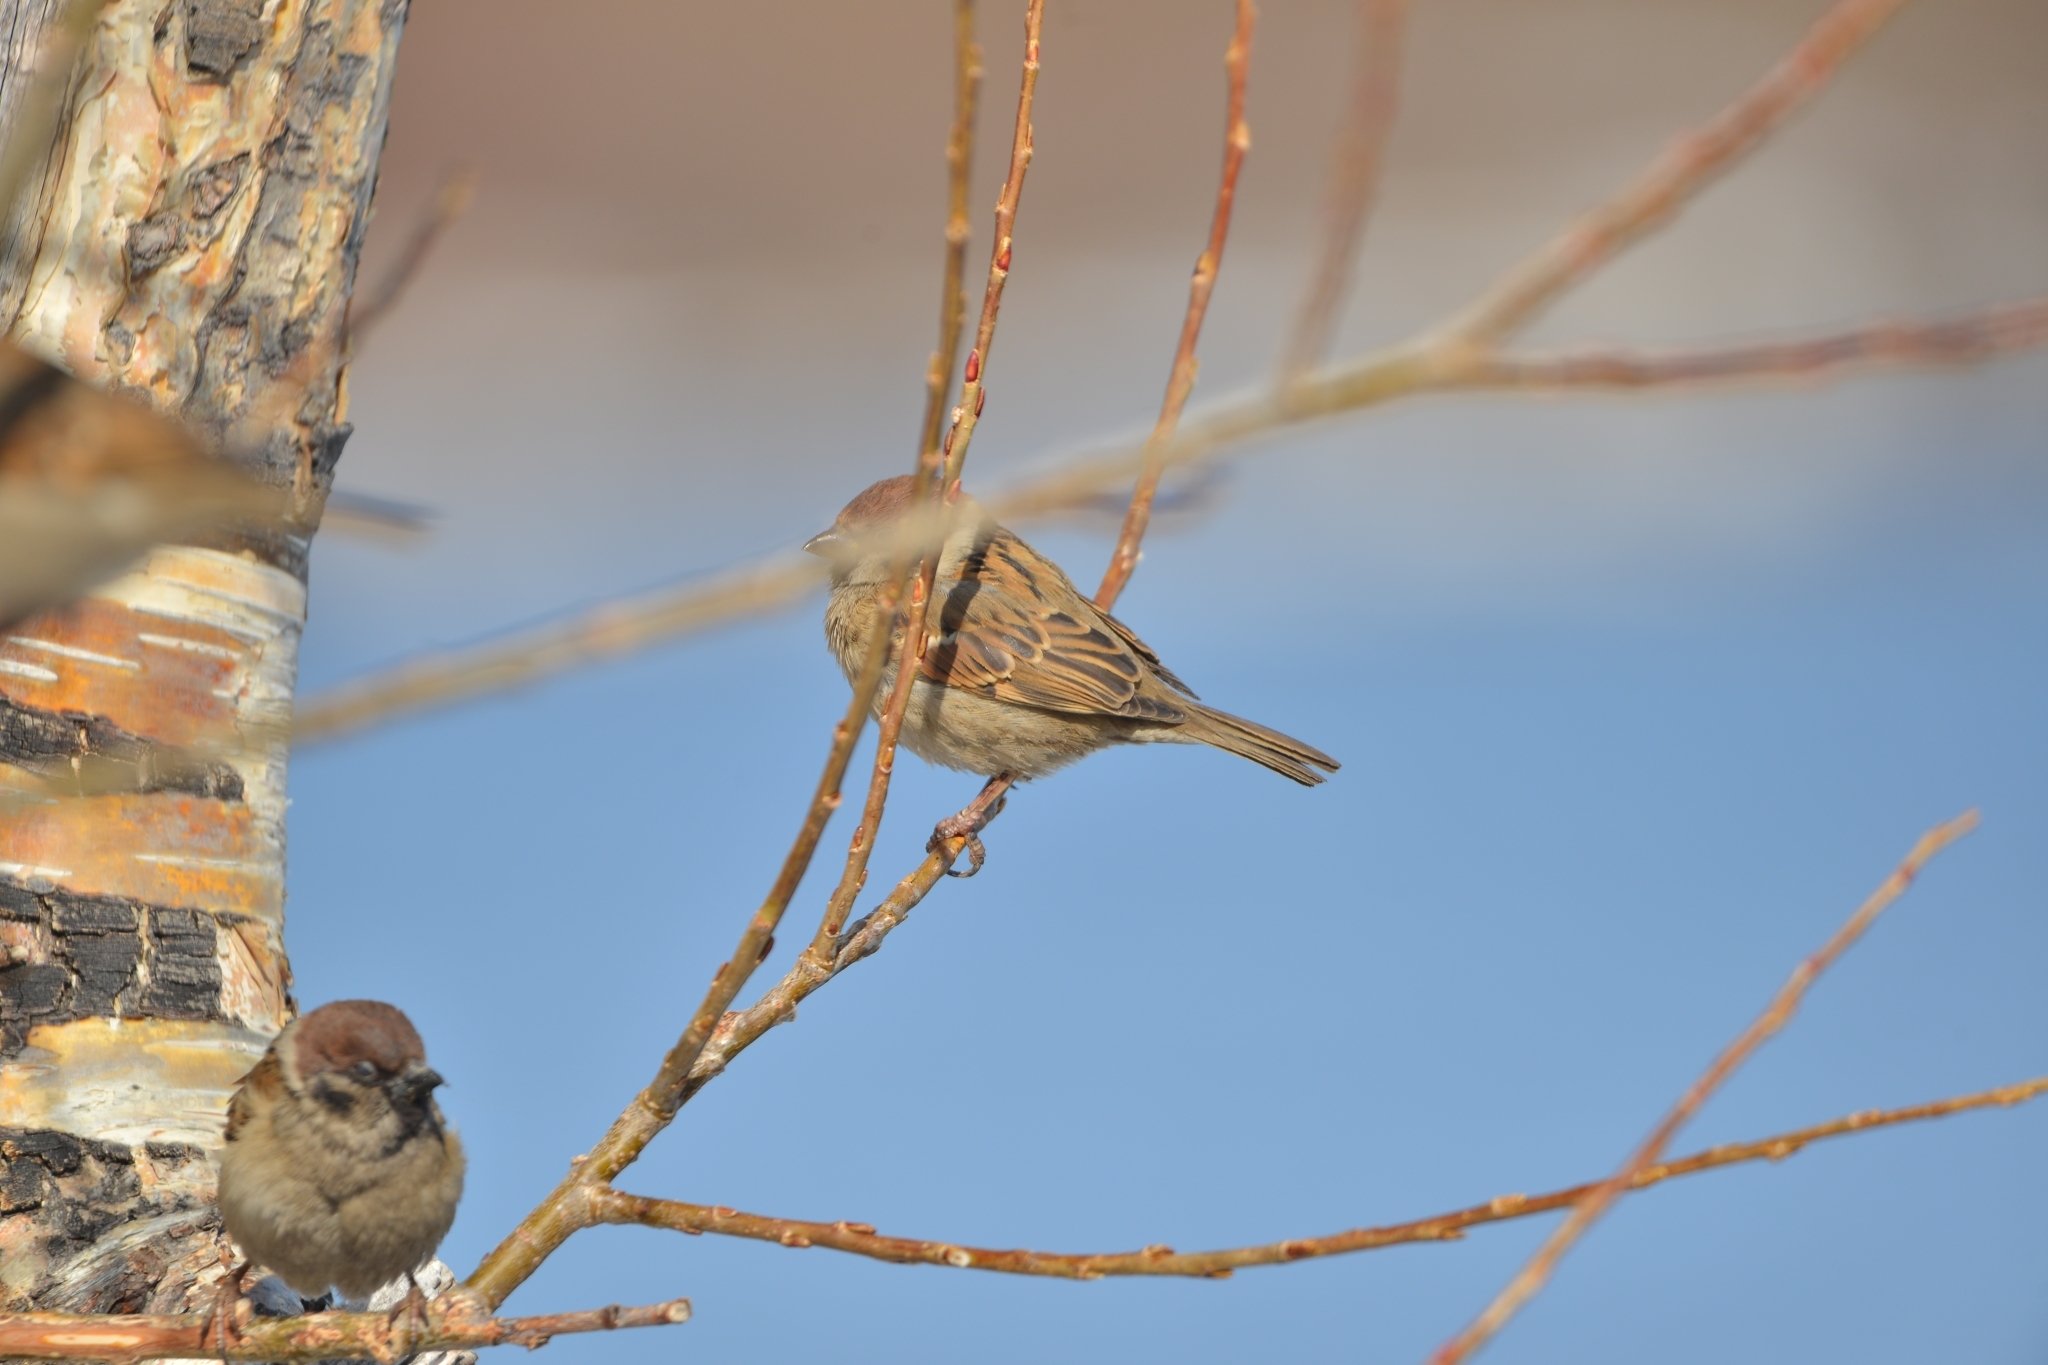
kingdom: Animalia
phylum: Chordata
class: Aves
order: Passeriformes
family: Passeridae
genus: Passer
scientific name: Passer montanus
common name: Eurasian tree sparrow
